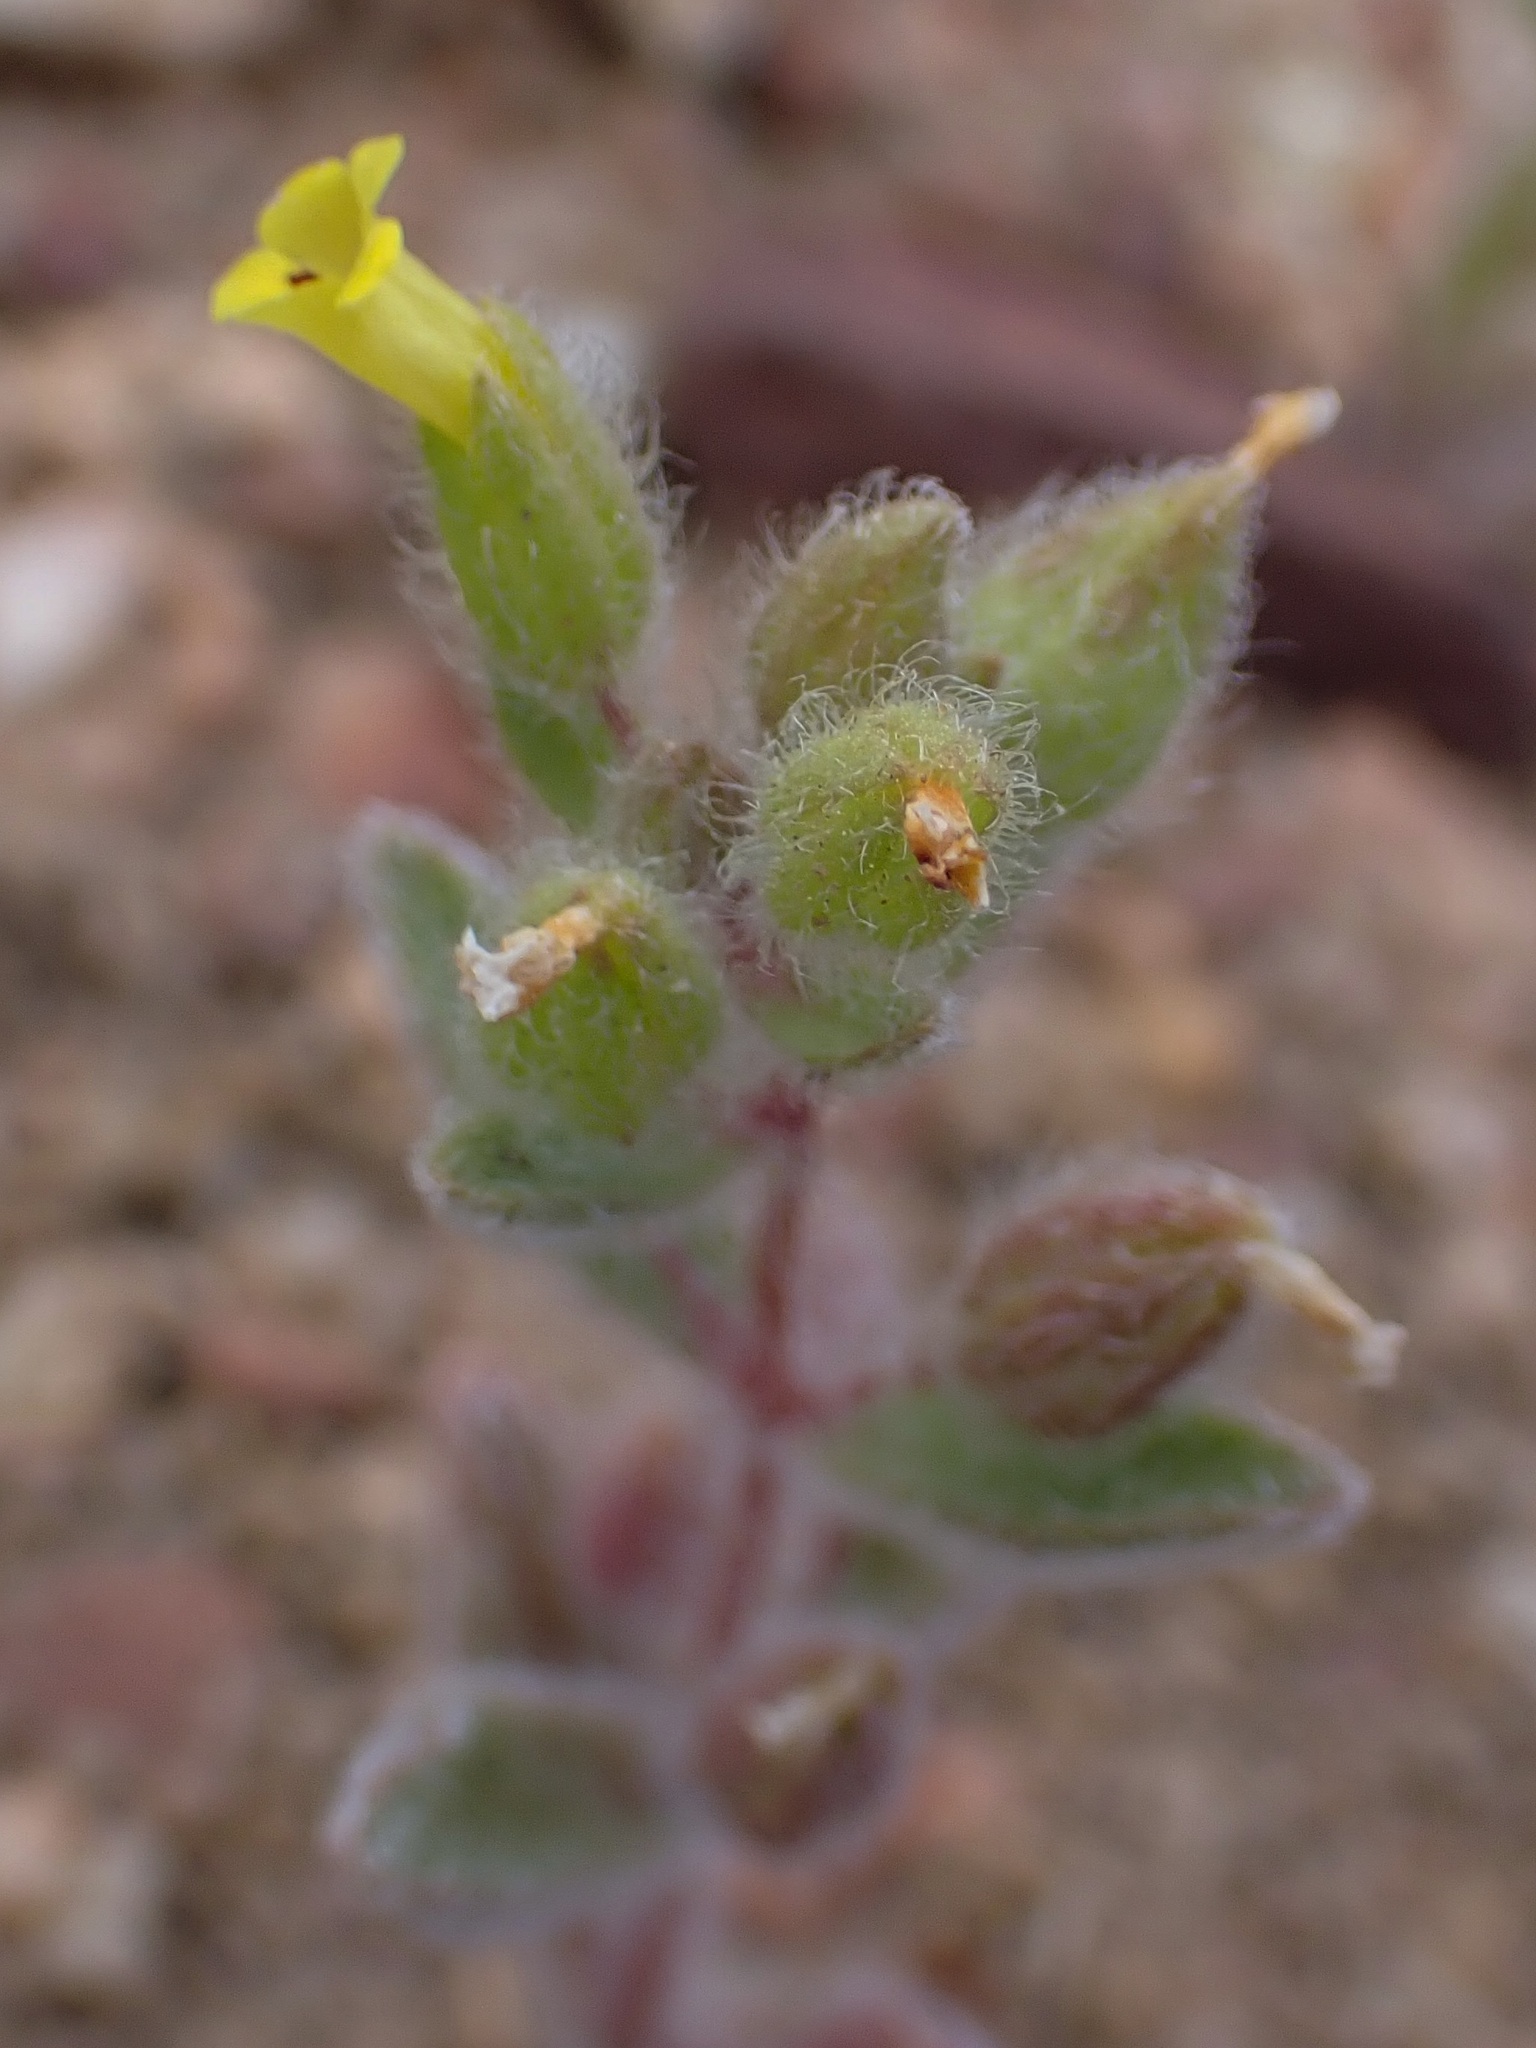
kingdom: Plantae
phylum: Tracheophyta
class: Magnoliopsida
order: Lamiales
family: Phrymaceae
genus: Mimetanthe
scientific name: Mimetanthe pilosa
